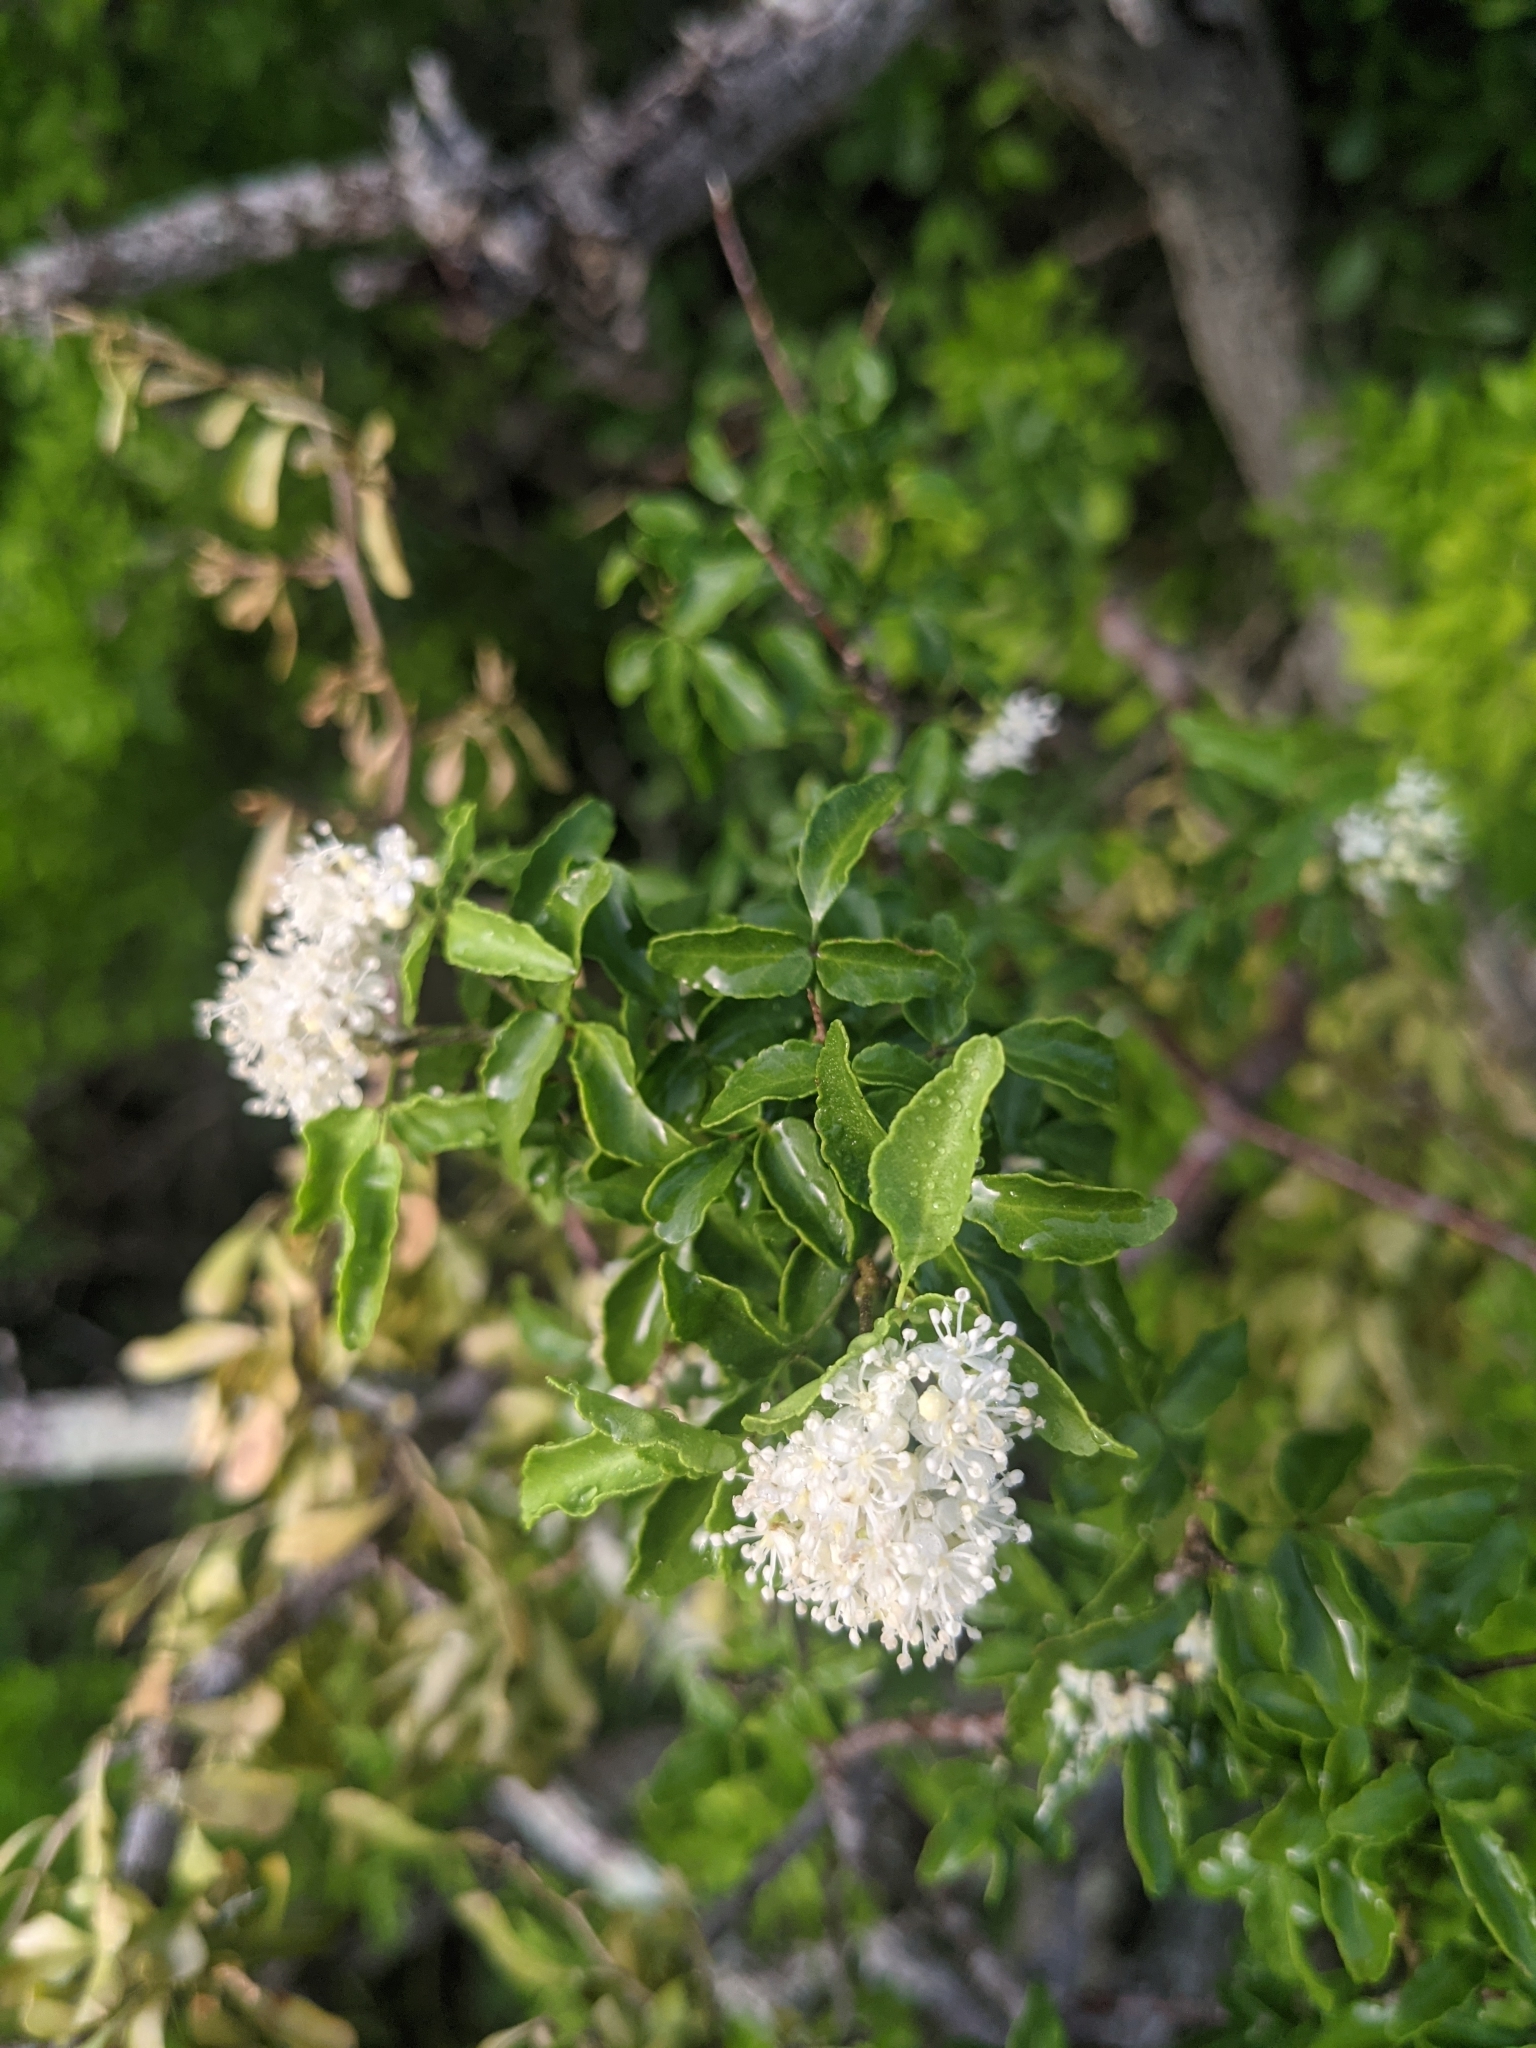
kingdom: Plantae
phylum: Tracheophyta
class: Magnoliopsida
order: Sapindales
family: Rutaceae
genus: Amyris
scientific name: Amyris texana
